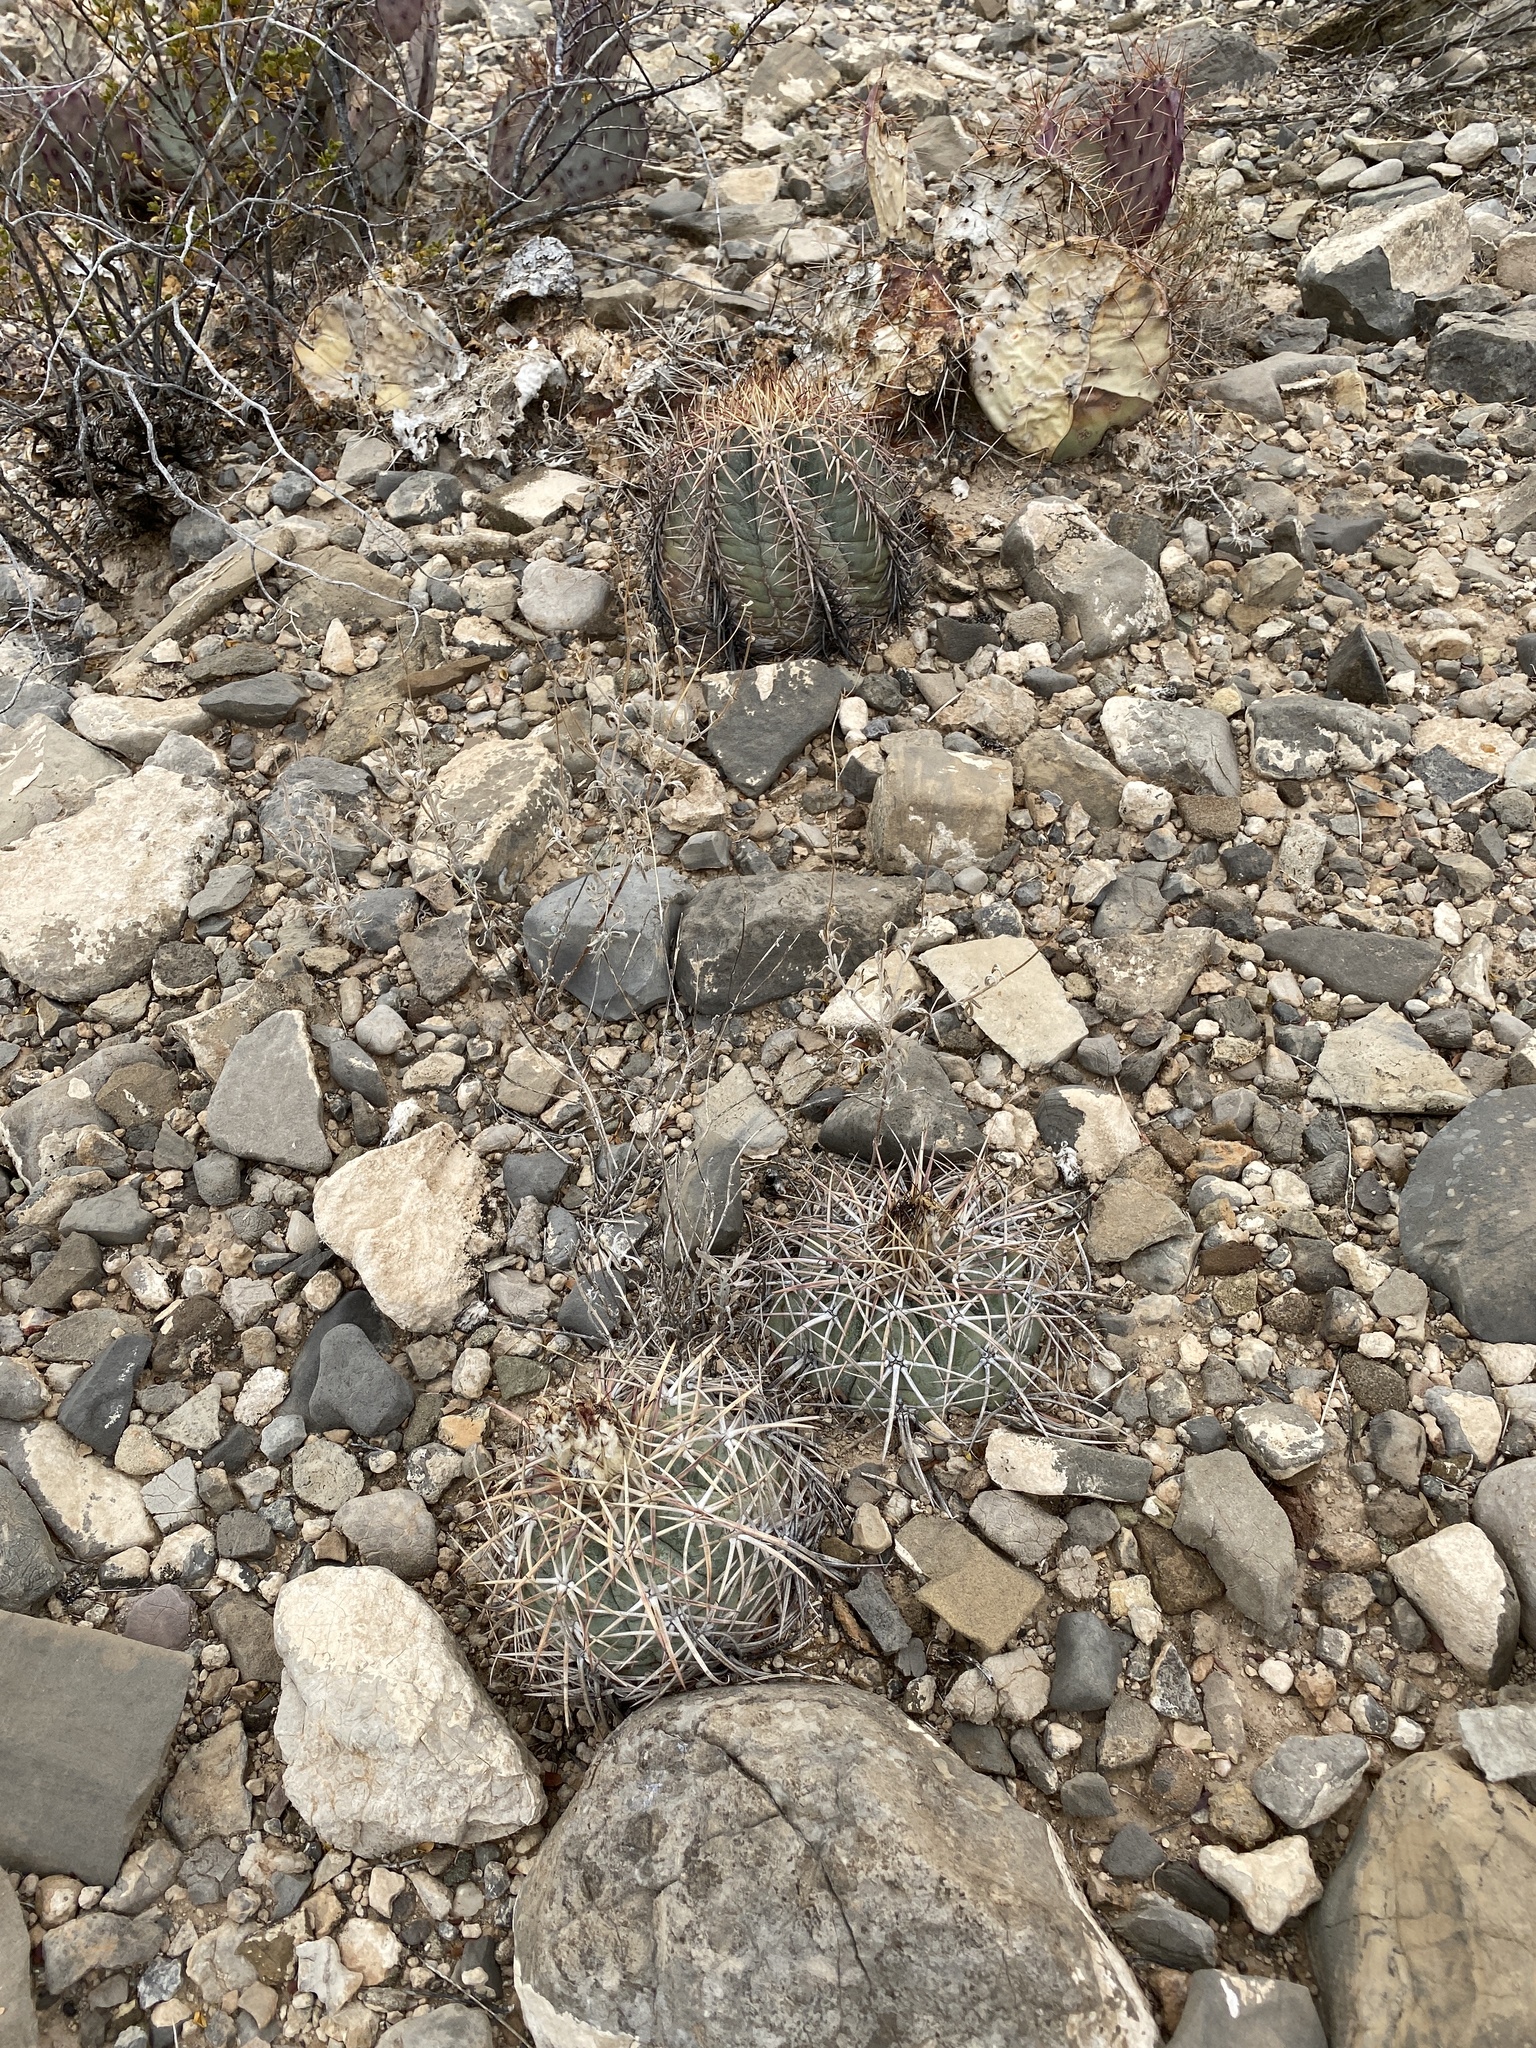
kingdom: Plantae
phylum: Tracheophyta
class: Magnoliopsida
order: Caryophyllales
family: Cactaceae
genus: Echinocactus
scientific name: Echinocactus horizonthalonius
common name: Devilshead
